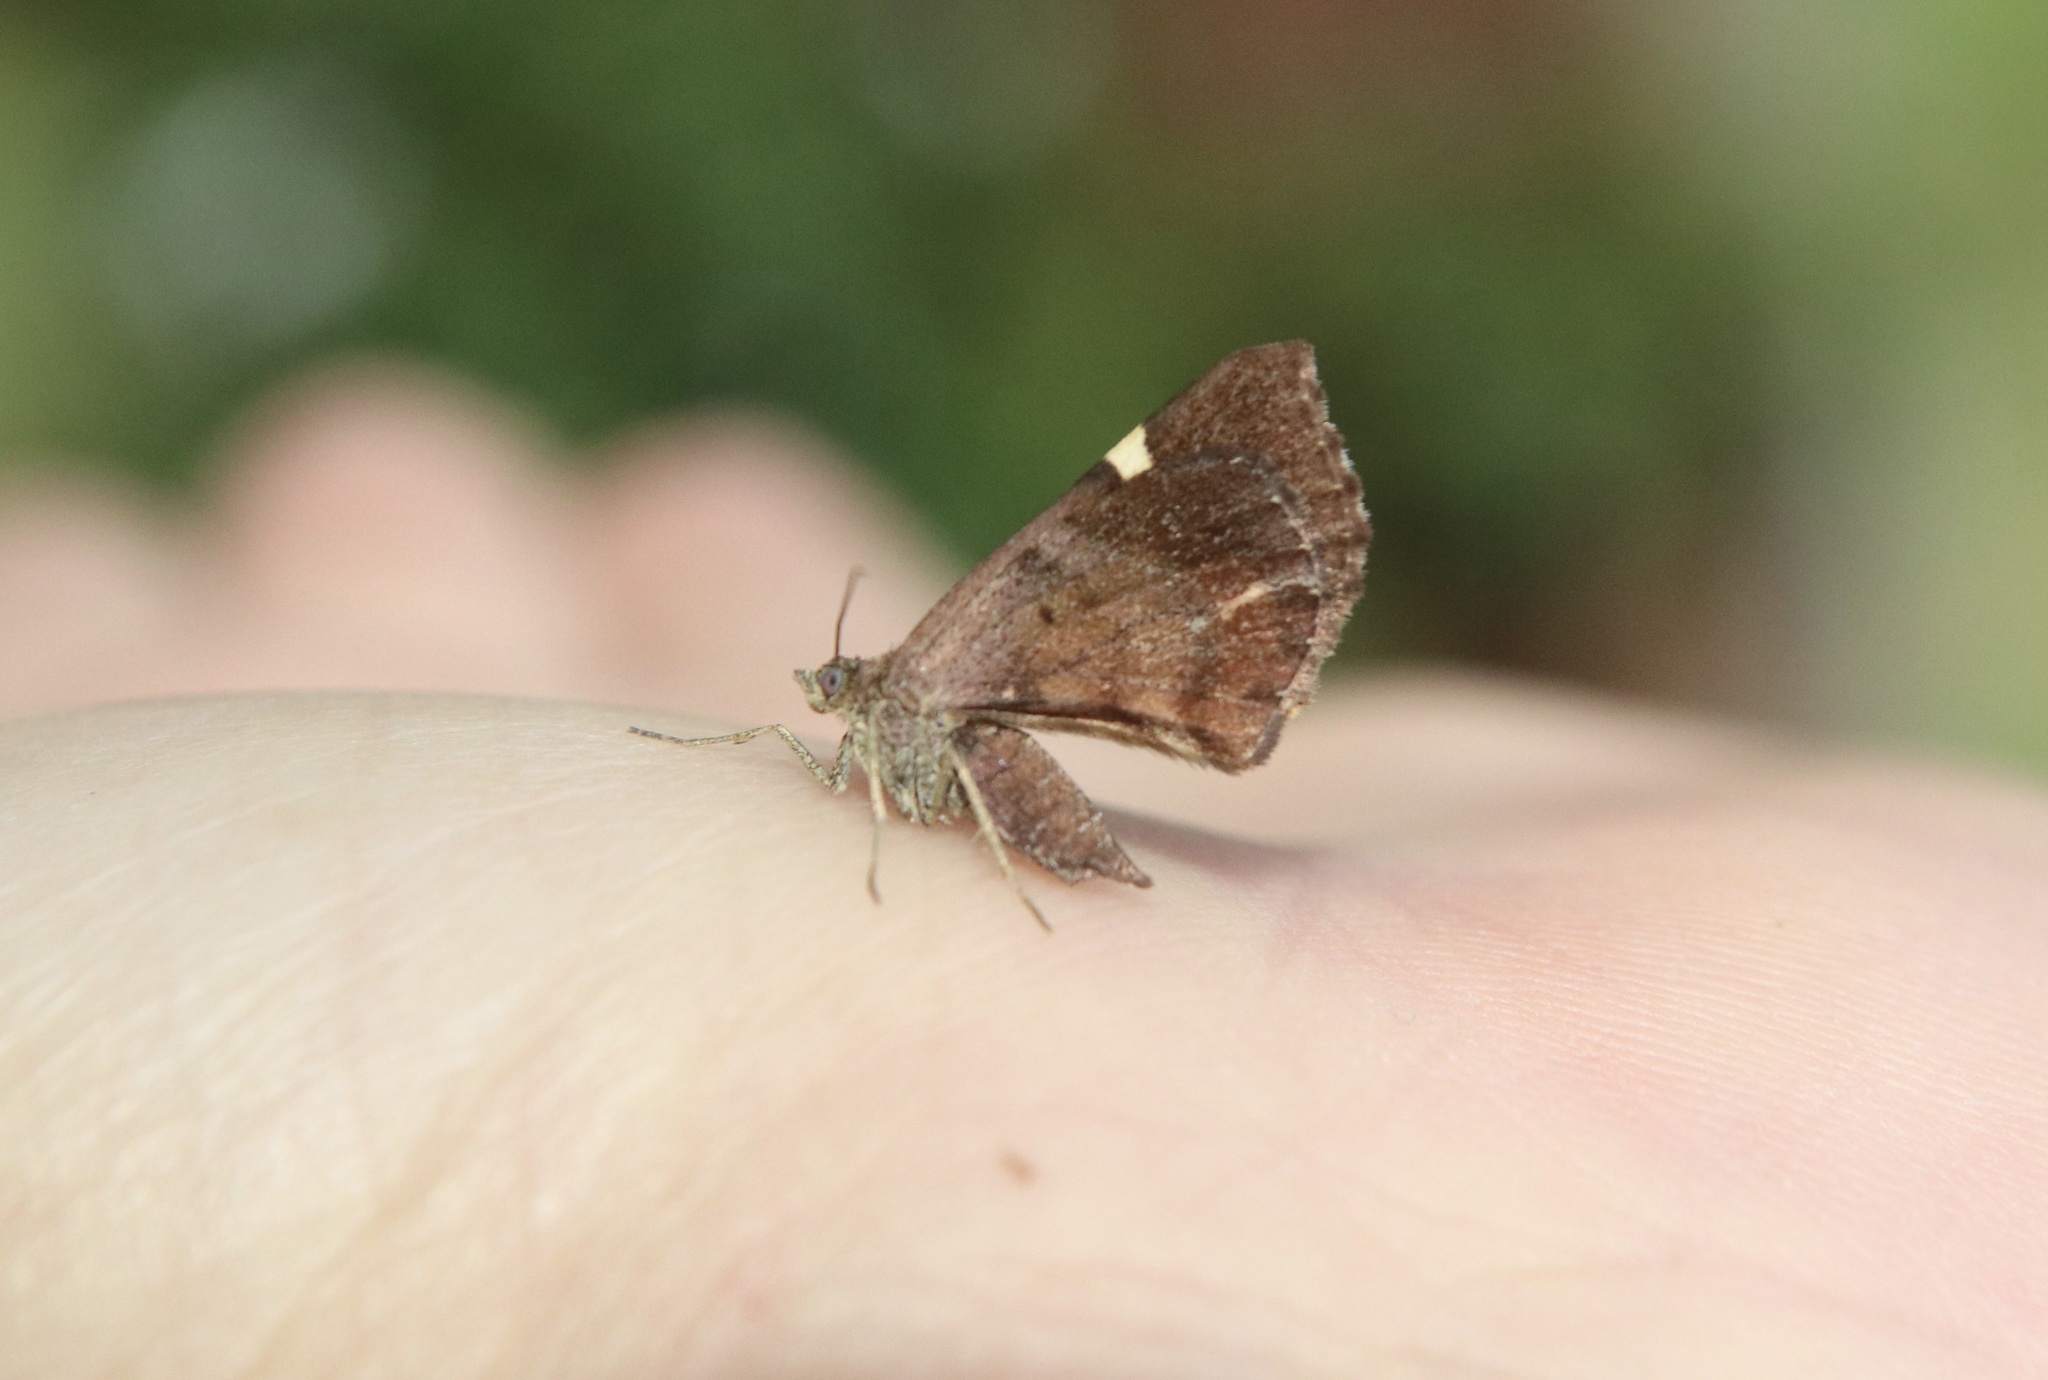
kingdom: Animalia
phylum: Arthropoda
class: Insecta
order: Lepidoptera
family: Geometridae
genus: Hagnagora
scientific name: Hagnagora vittata
